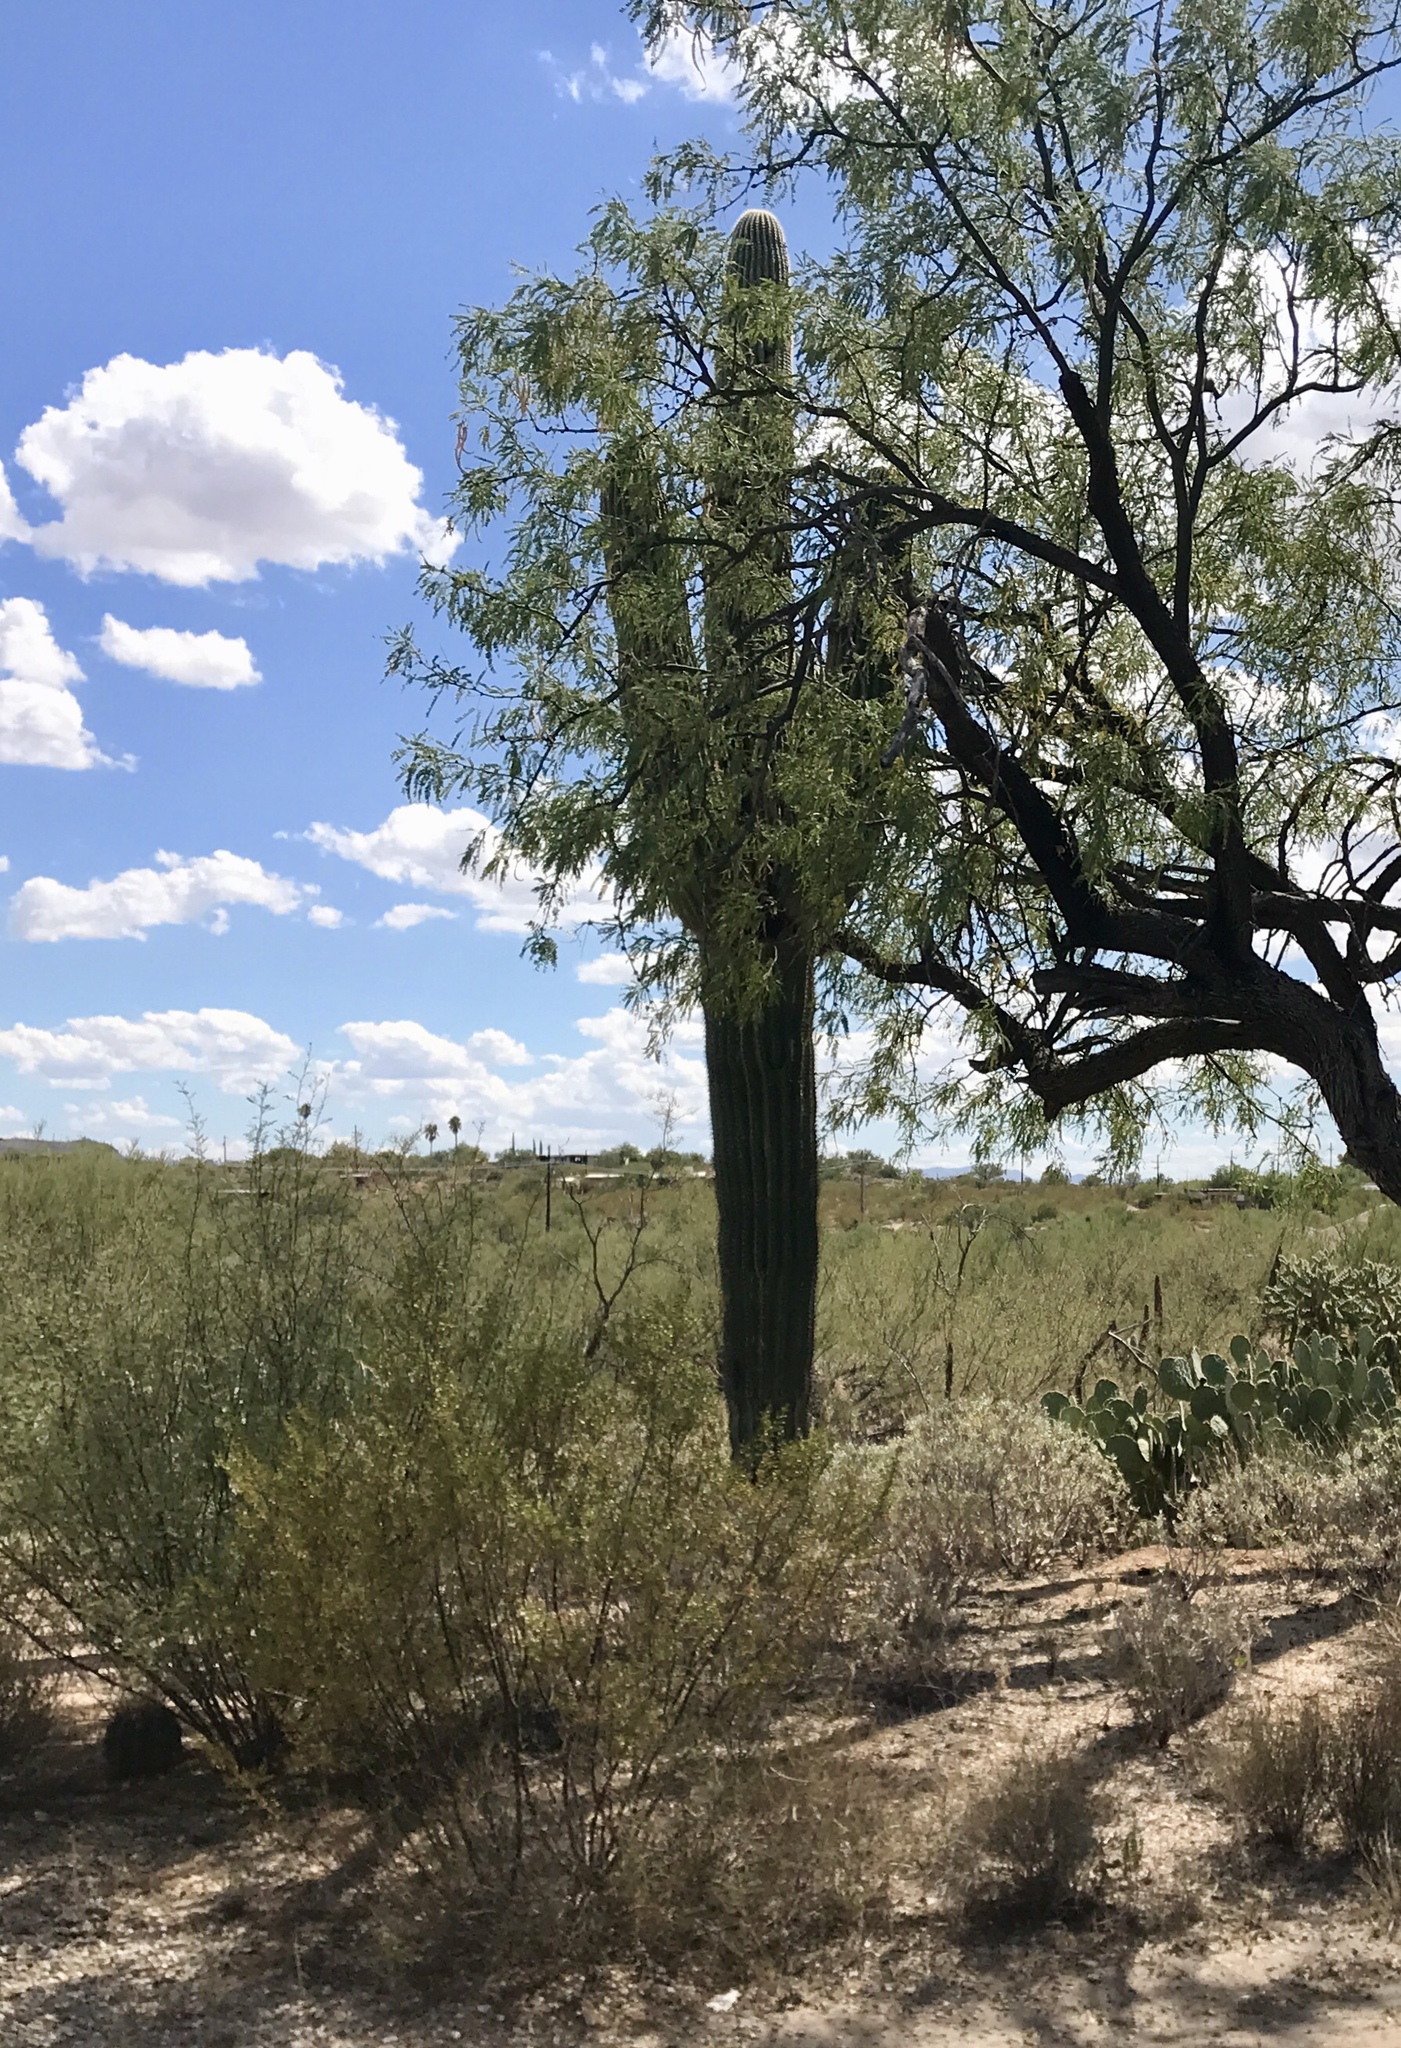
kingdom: Plantae
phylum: Tracheophyta
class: Magnoliopsida
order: Caryophyllales
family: Cactaceae
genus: Carnegiea
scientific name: Carnegiea gigantea
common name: Saguaro
